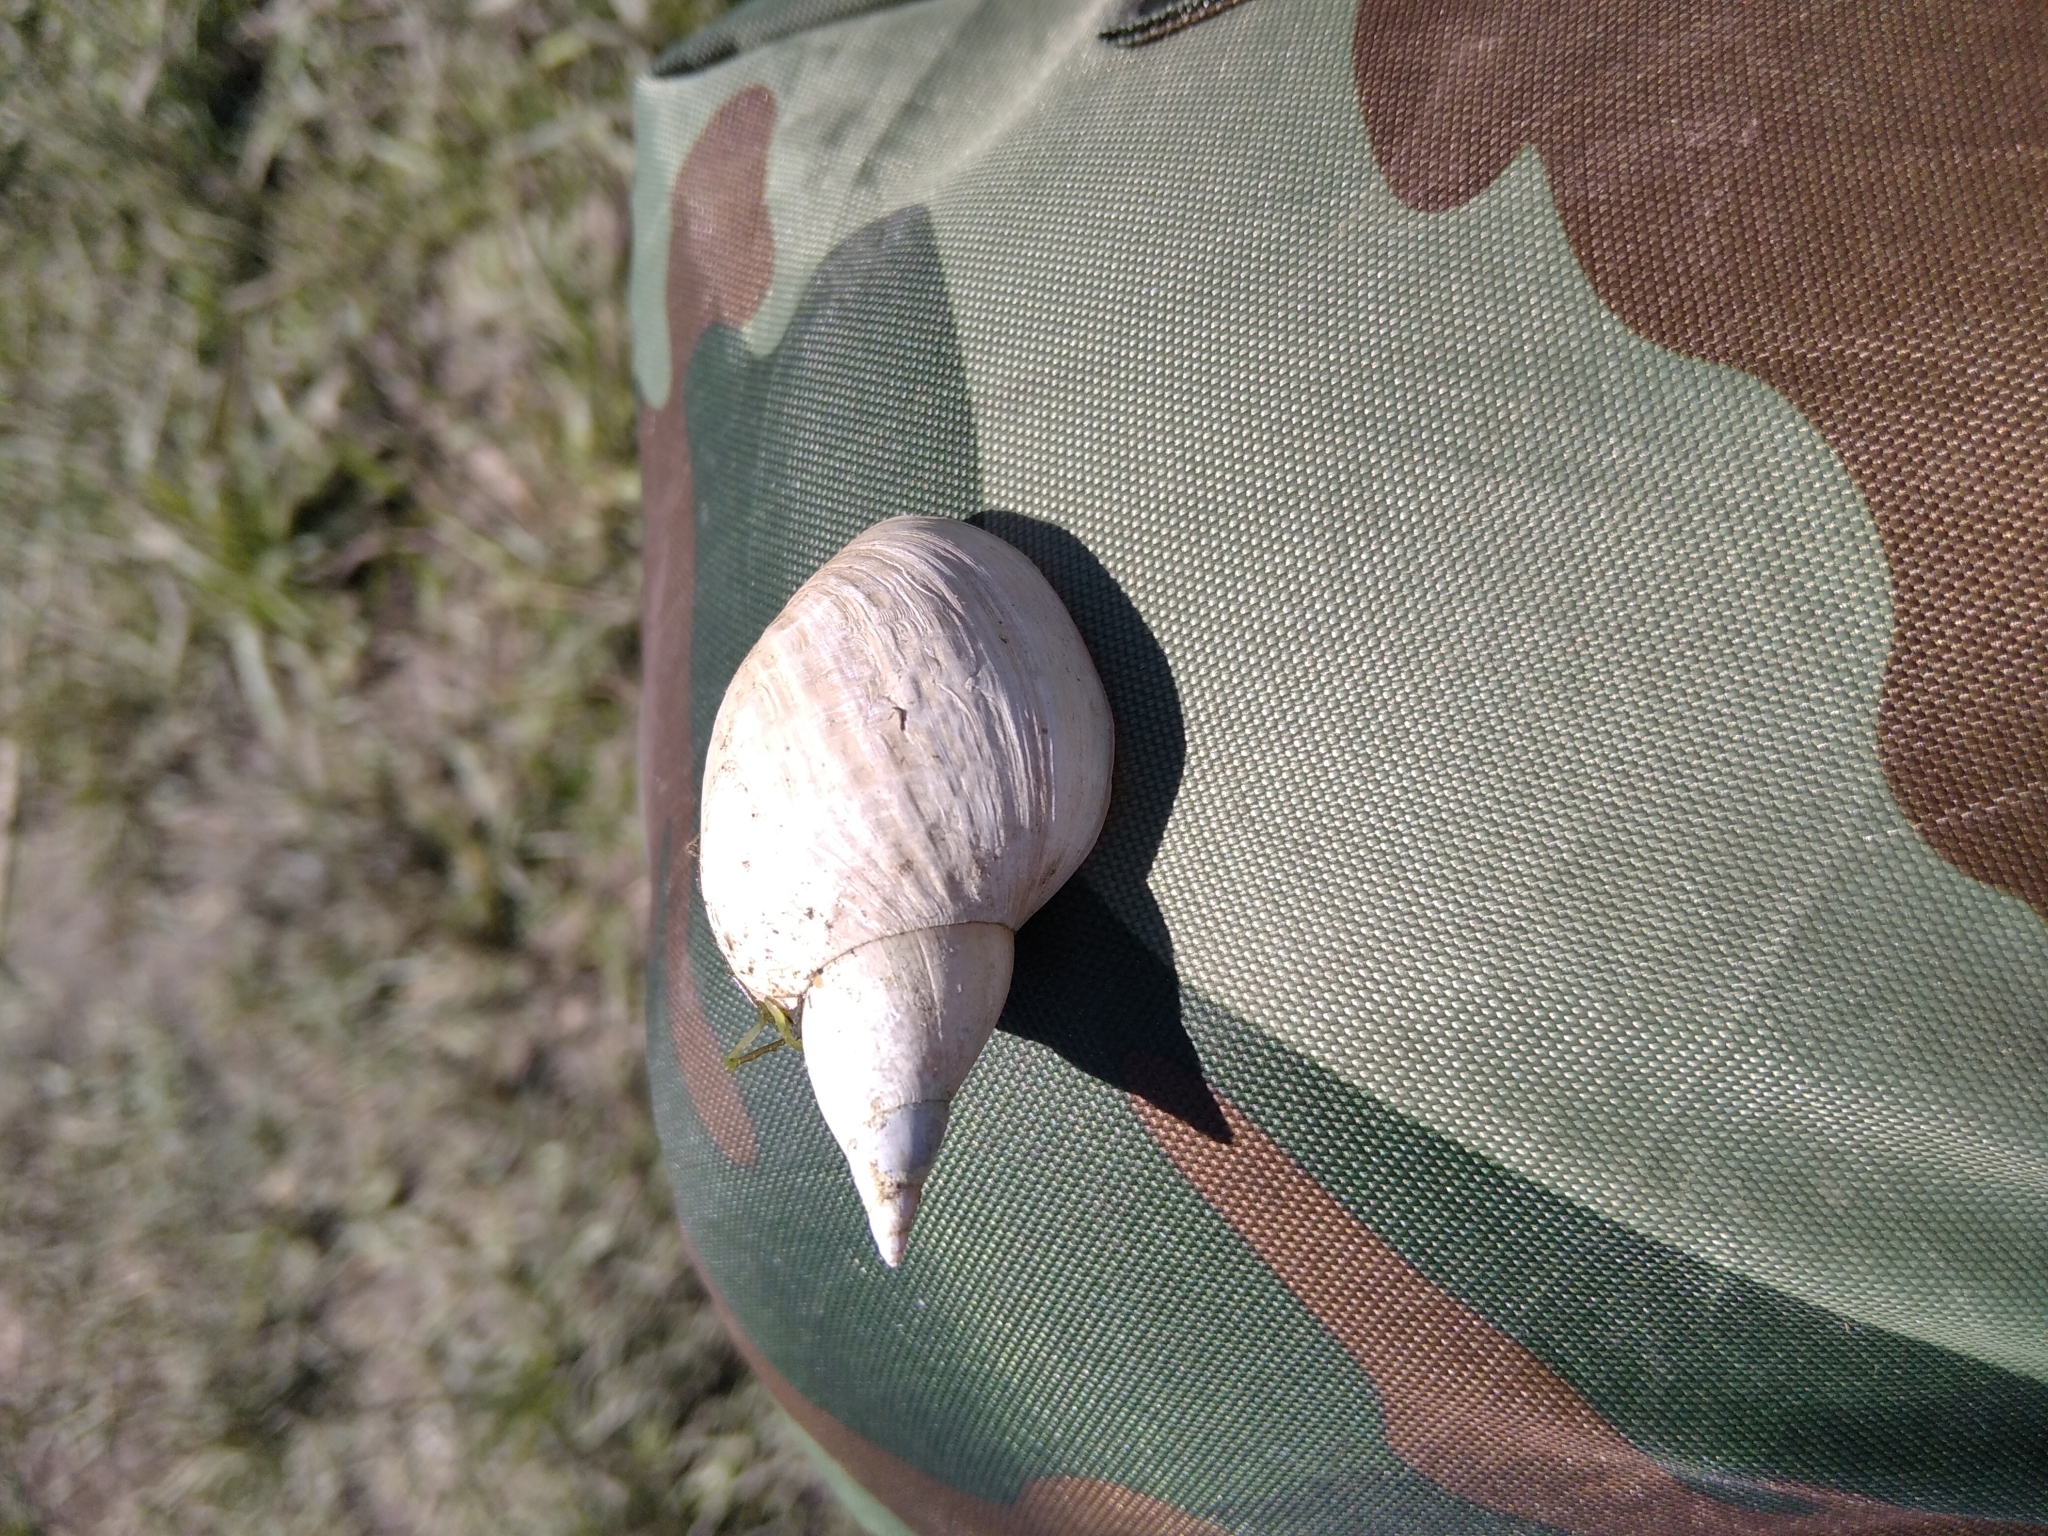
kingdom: Animalia
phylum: Mollusca
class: Gastropoda
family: Lymnaeidae
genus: Lymnaea
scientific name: Lymnaea stagnalis
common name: Great pond snail
